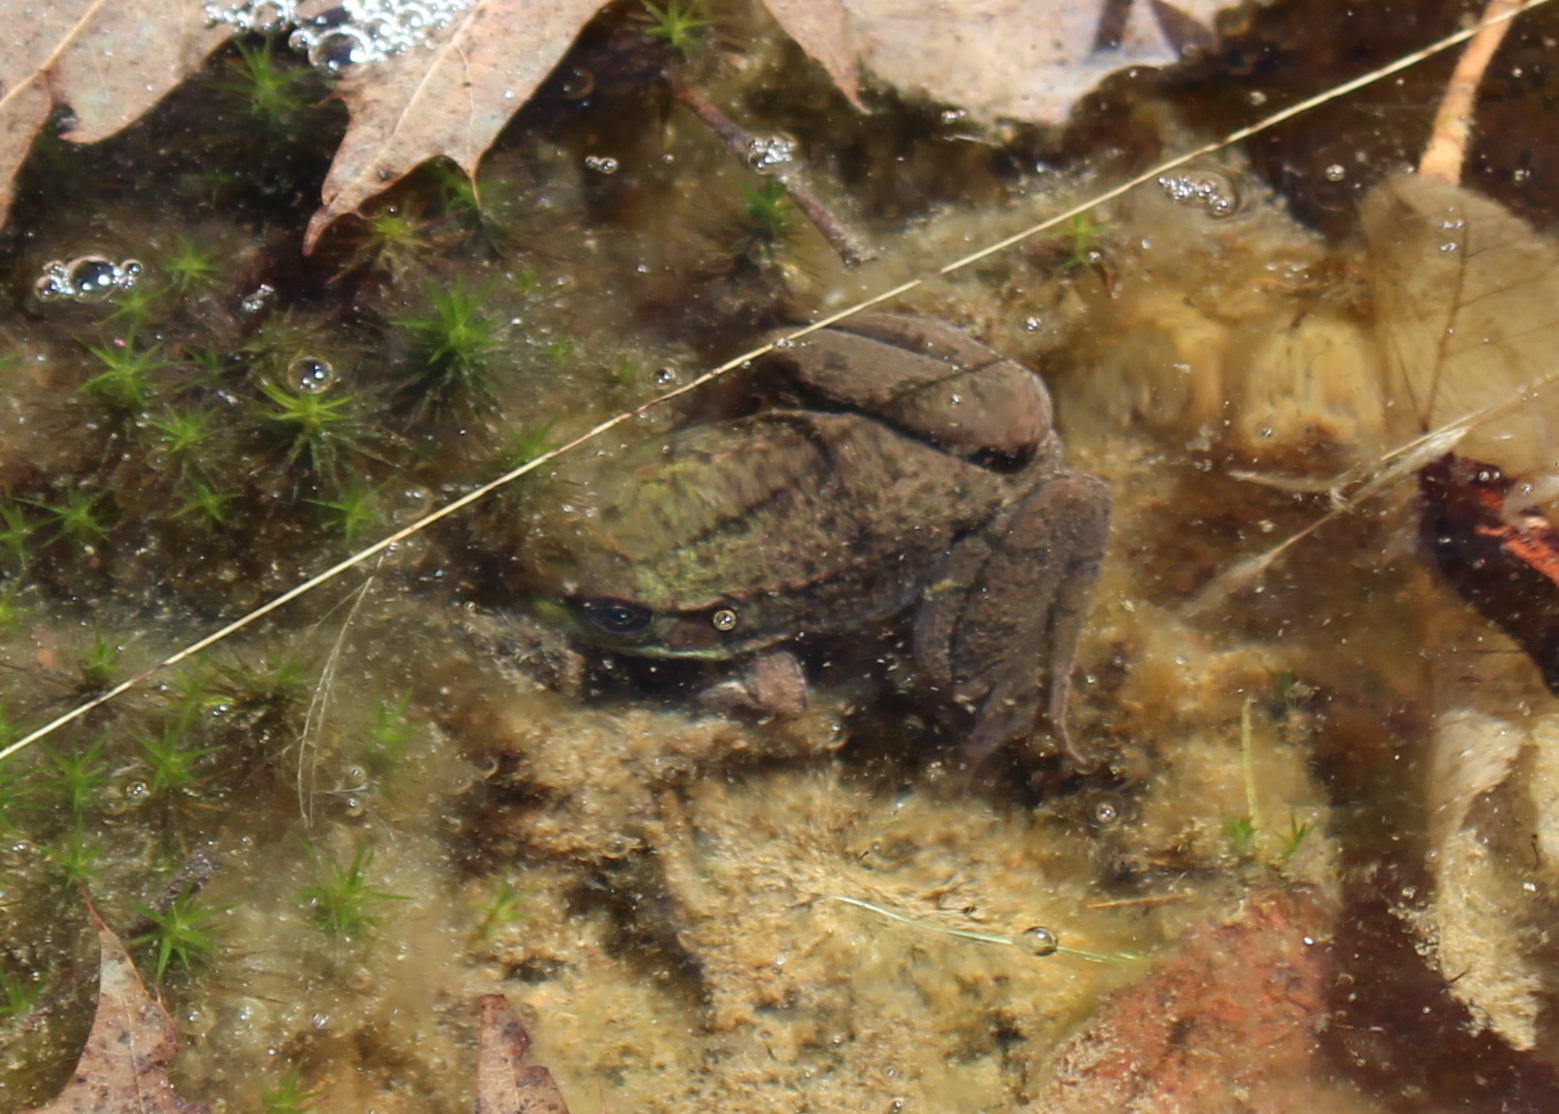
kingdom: Animalia
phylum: Chordata
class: Amphibia
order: Anura
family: Ranidae
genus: Lithobates
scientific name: Lithobates clamitans
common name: Green frog
